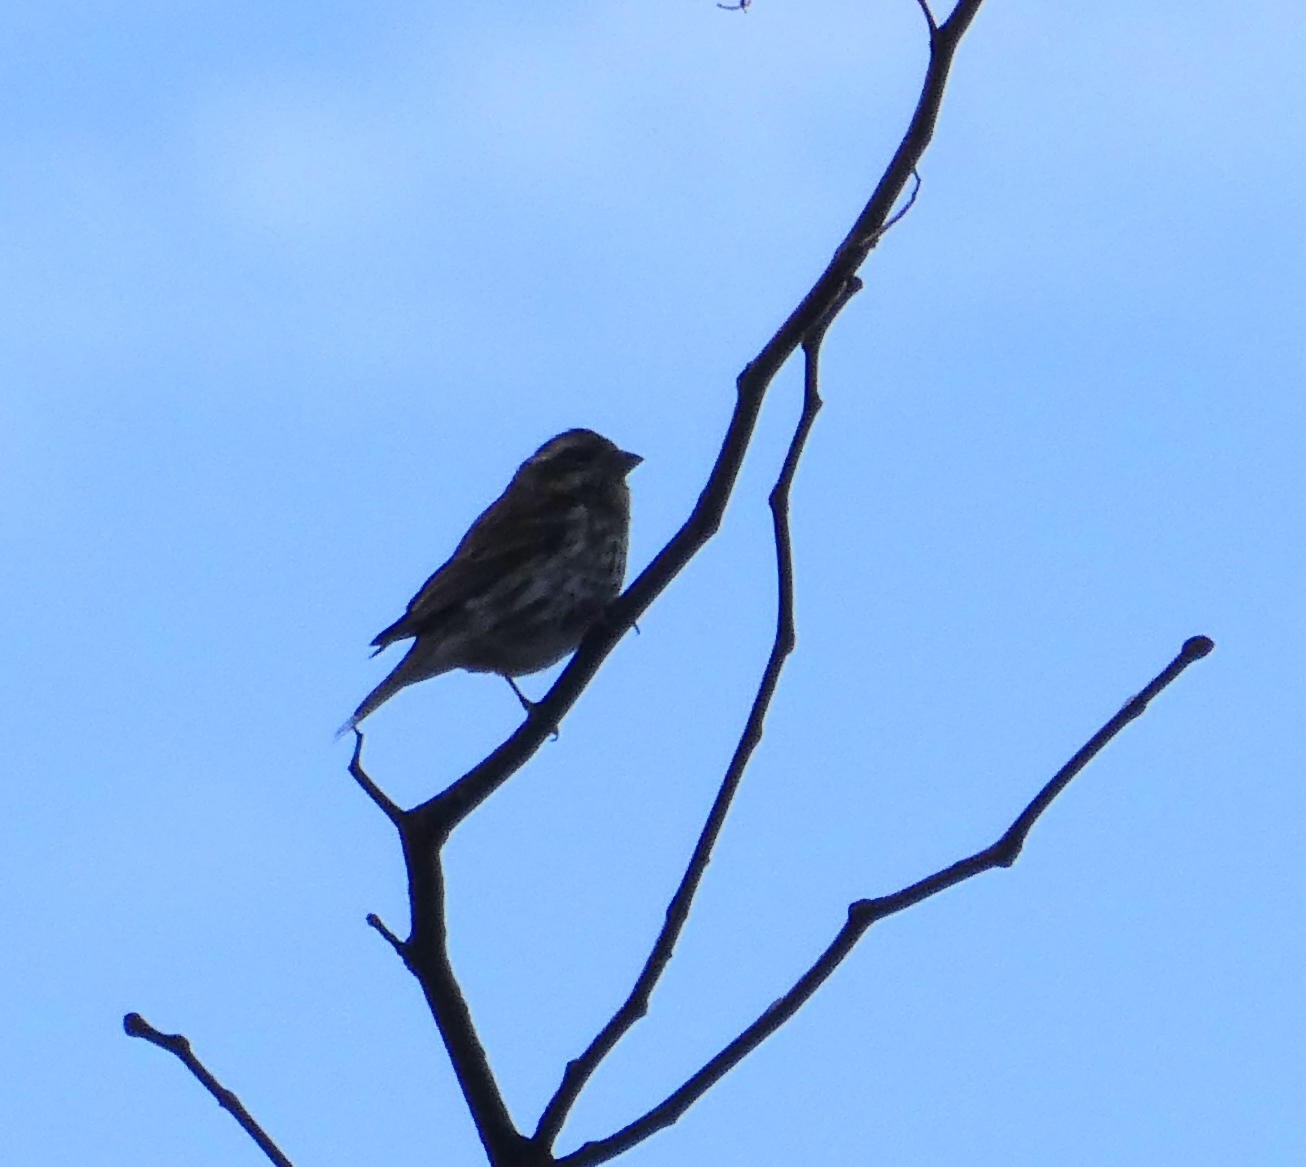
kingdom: Animalia
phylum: Chordata
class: Aves
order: Passeriformes
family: Fringillidae
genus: Haemorhous
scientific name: Haemorhous purpureus
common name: Purple finch
